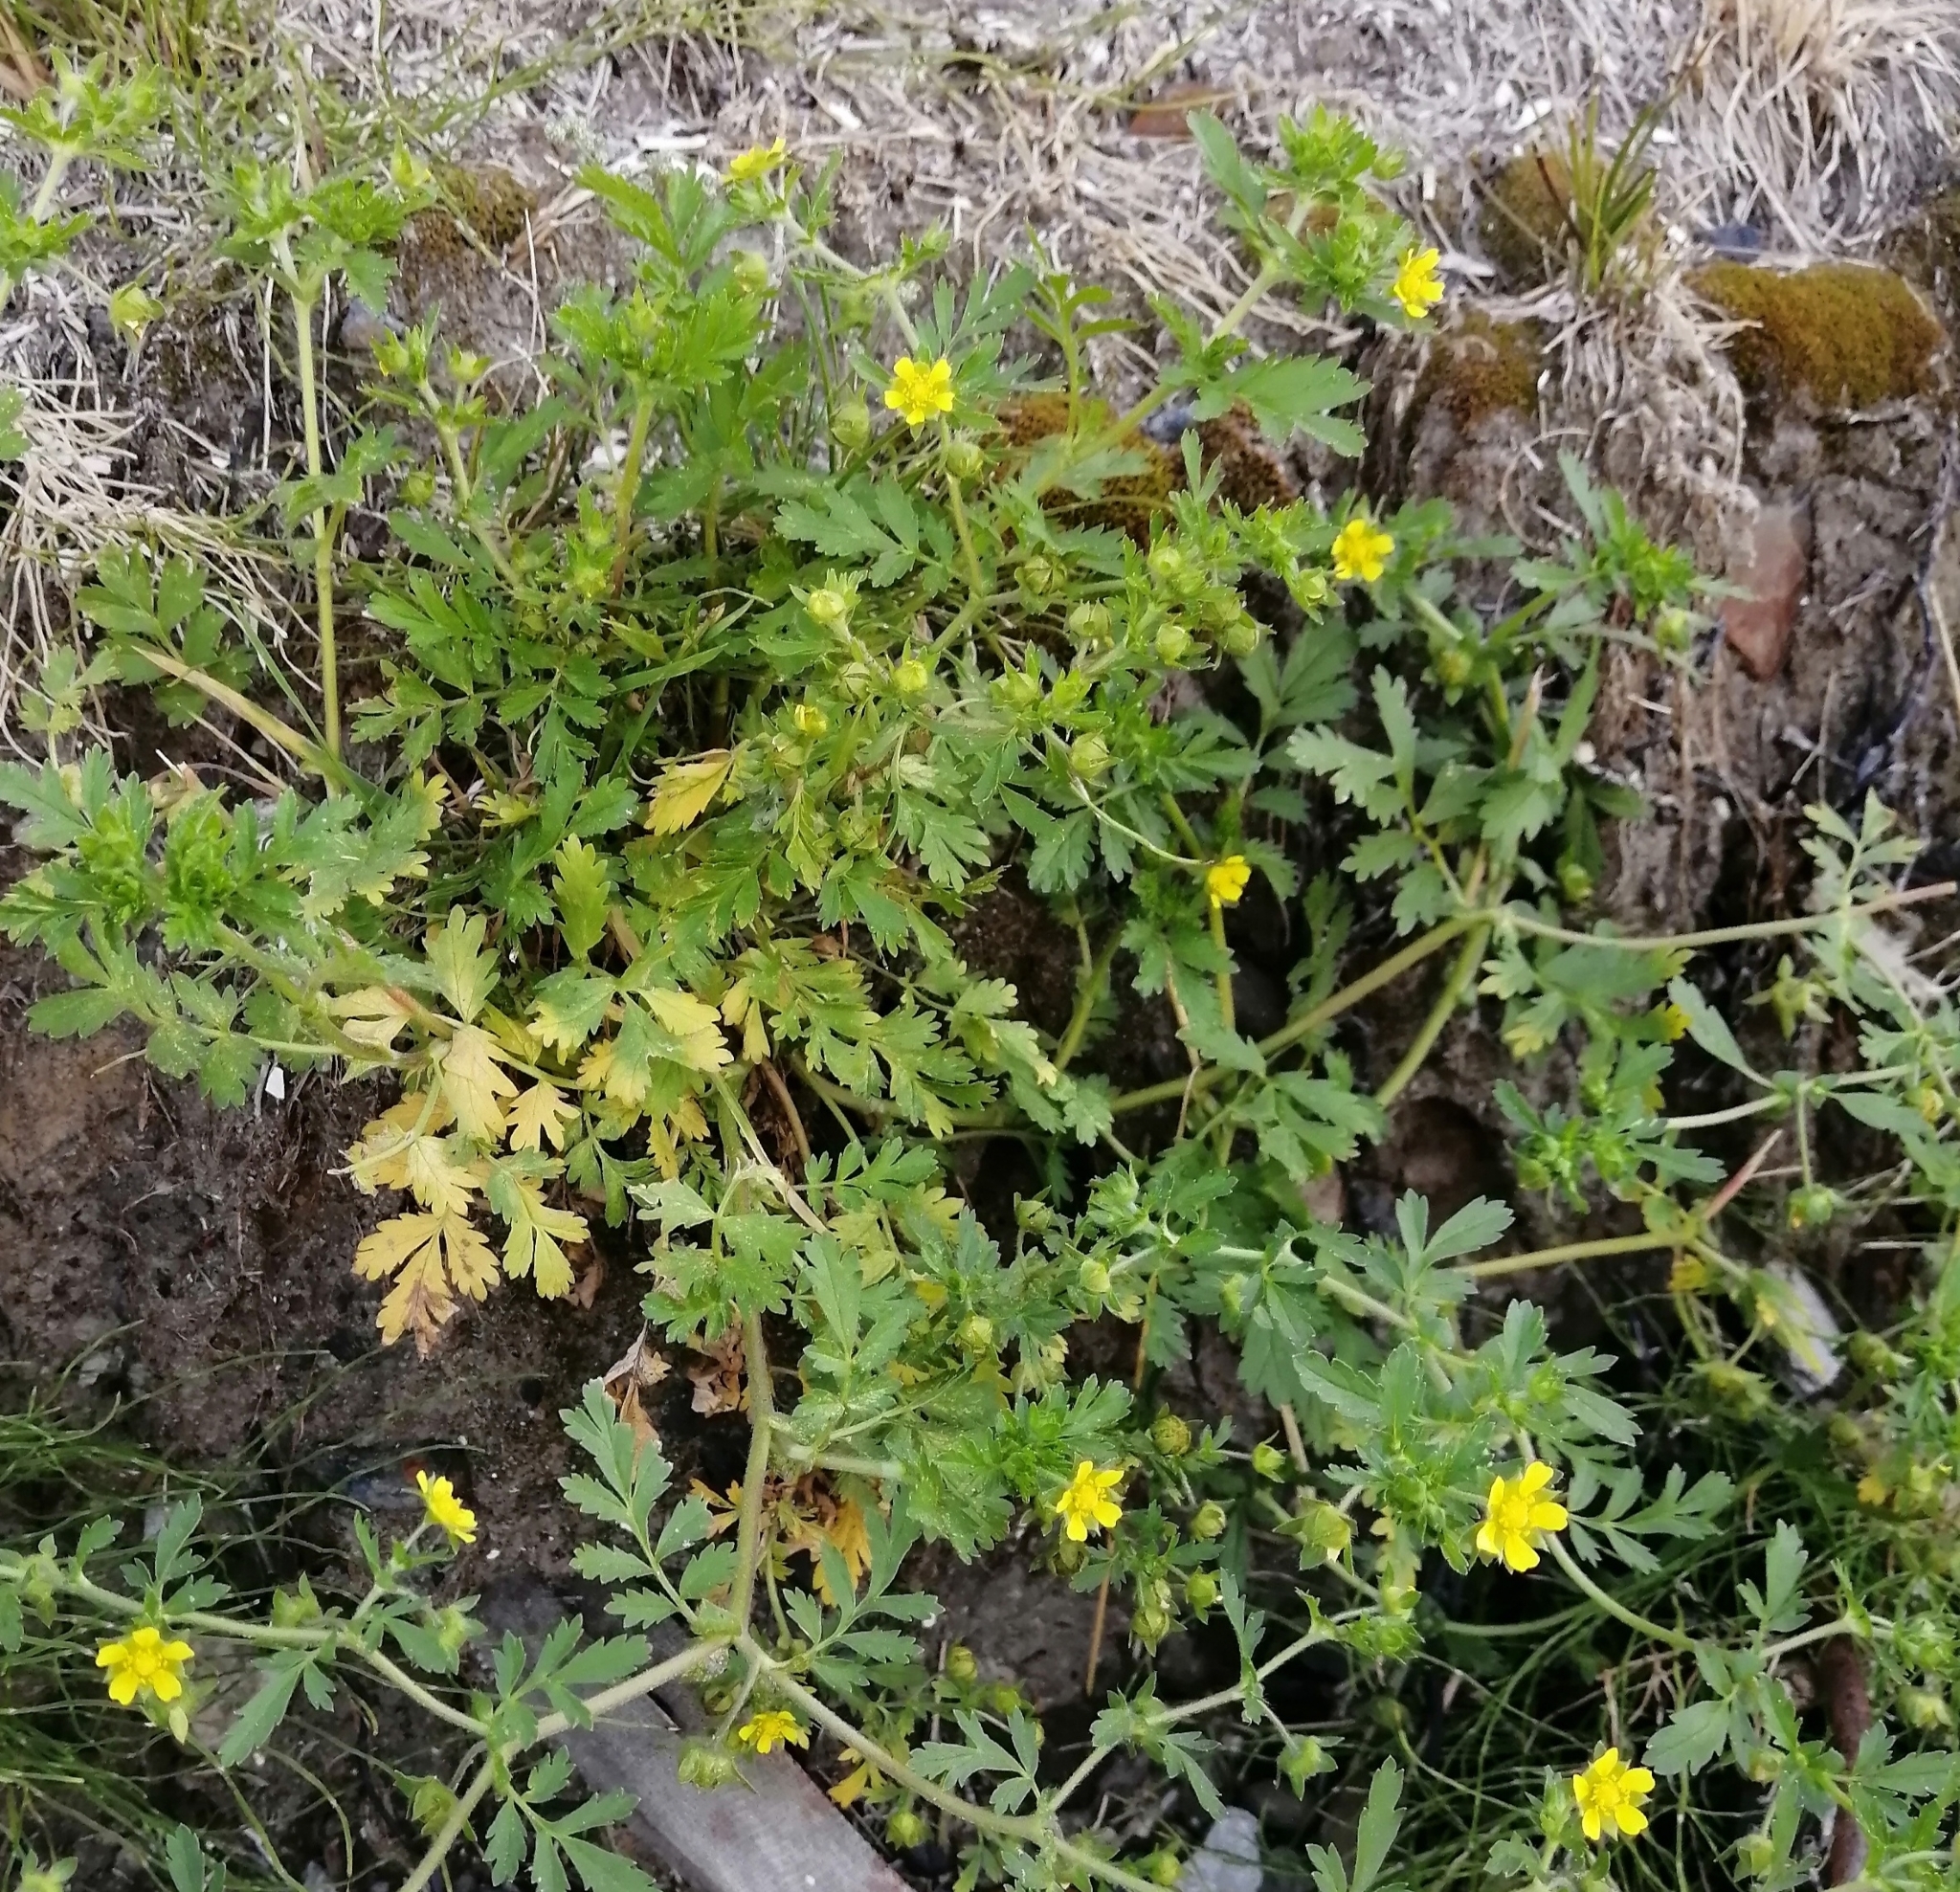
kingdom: Plantae
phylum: Tracheophyta
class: Magnoliopsida
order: Rosales
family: Rosaceae
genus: Potentilla
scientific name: Potentilla supina
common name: Prostrate cinquefoil
